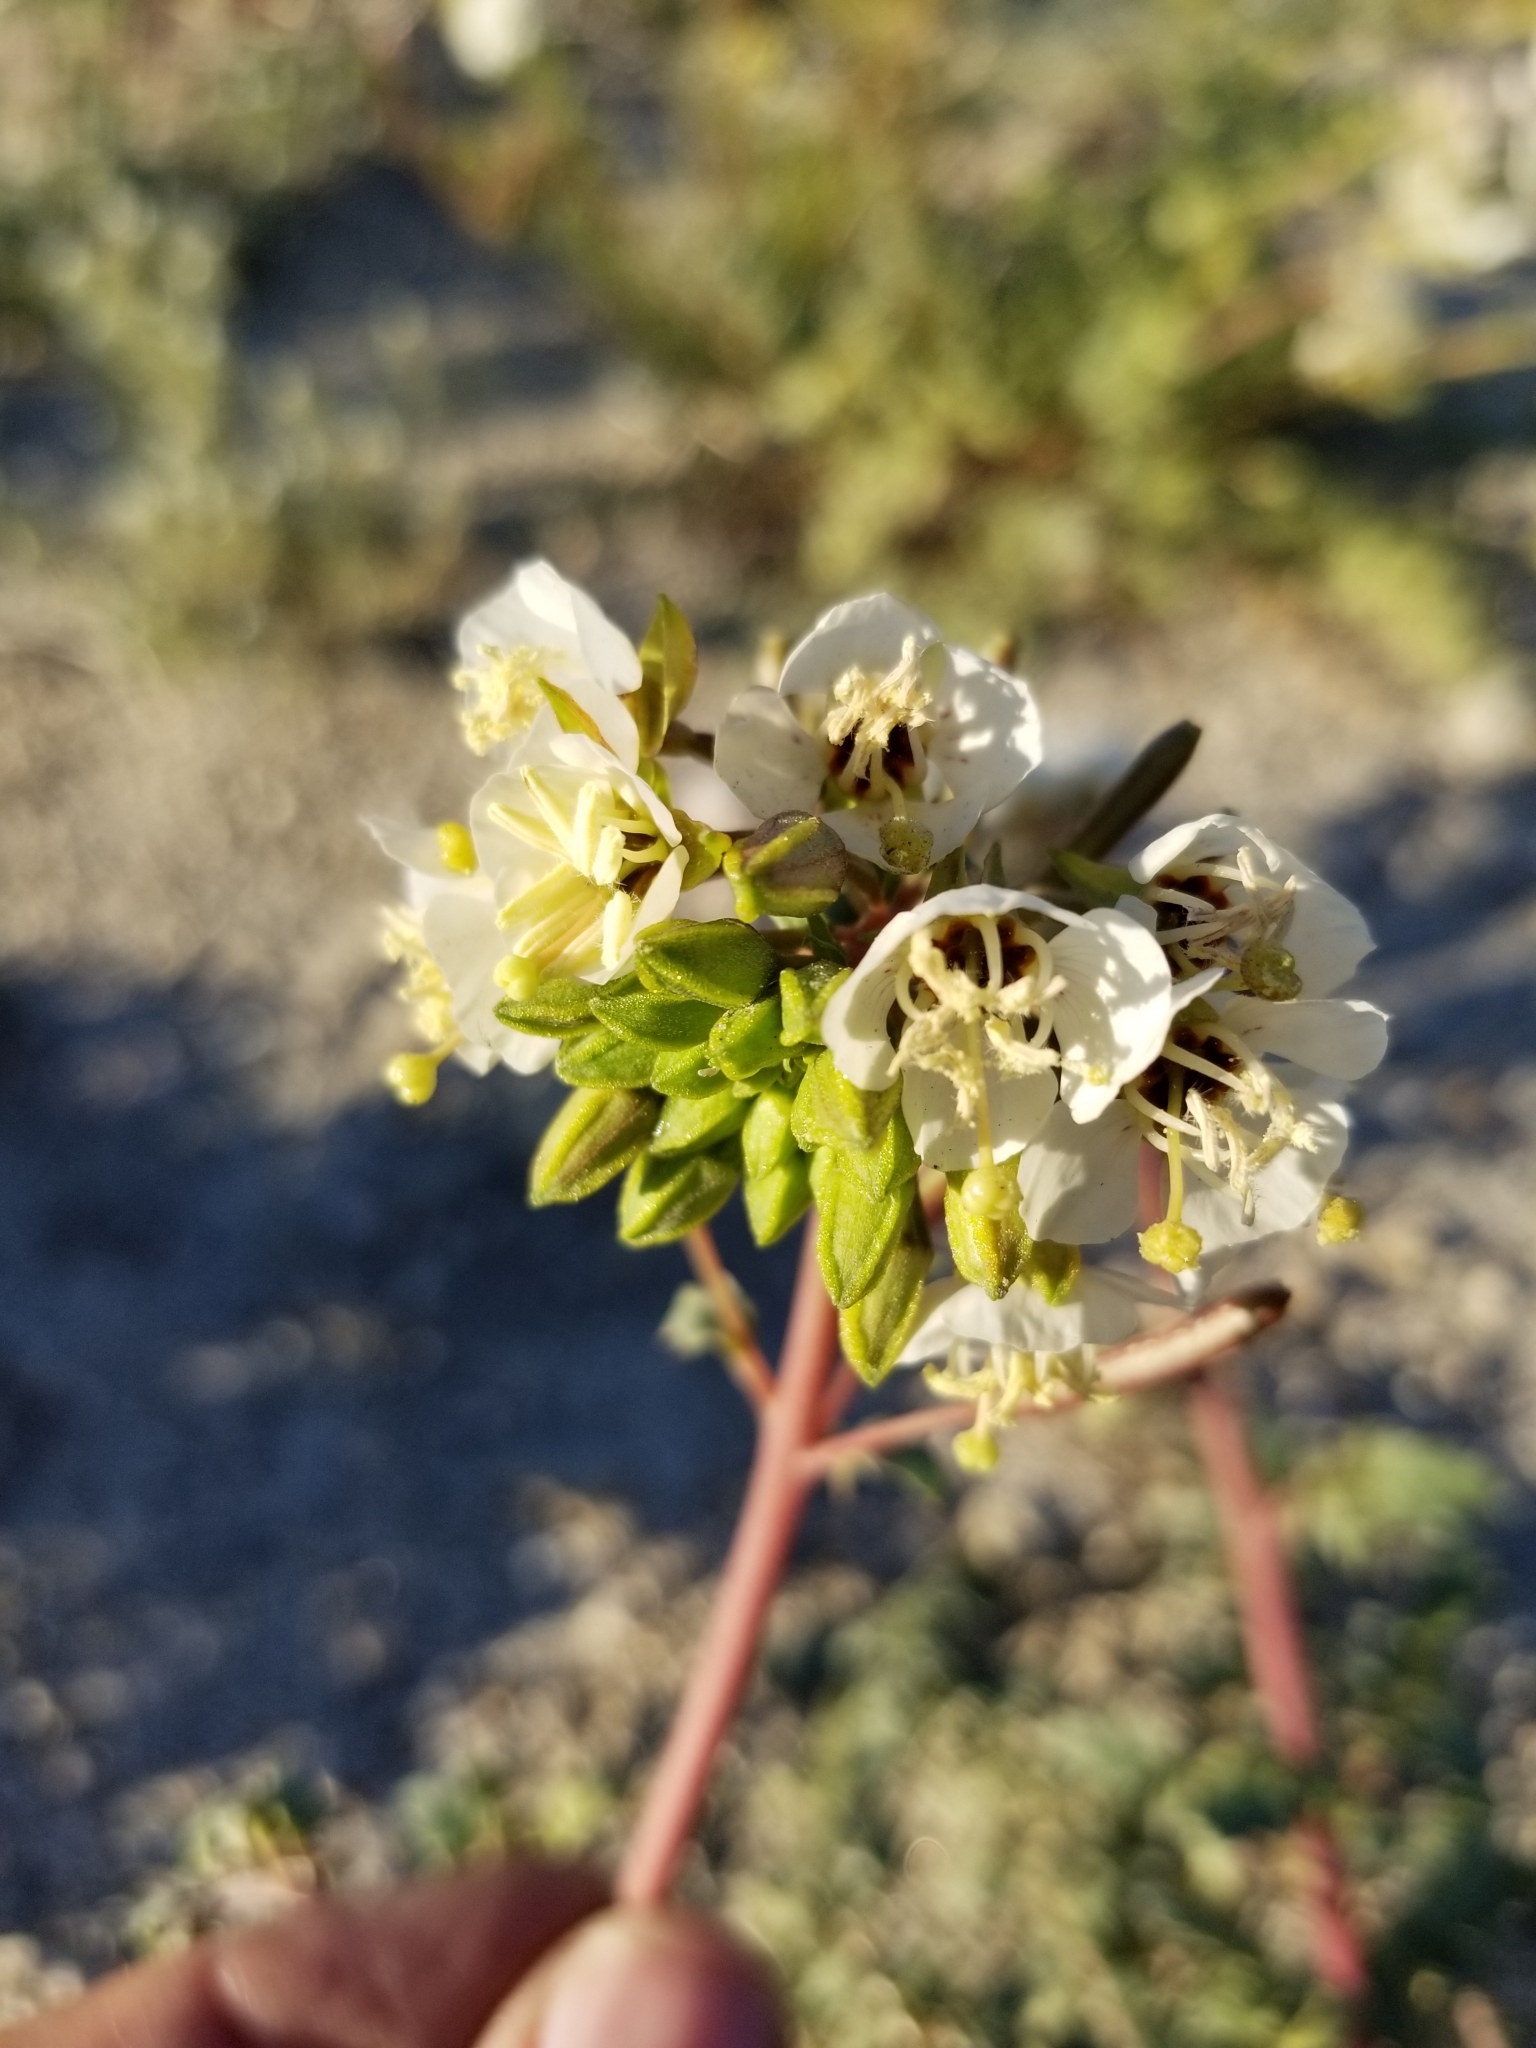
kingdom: Plantae
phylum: Tracheophyta
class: Magnoliopsida
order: Myrtales
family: Onagraceae
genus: Chylismia
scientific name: Chylismia claviformis
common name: Browneyes
